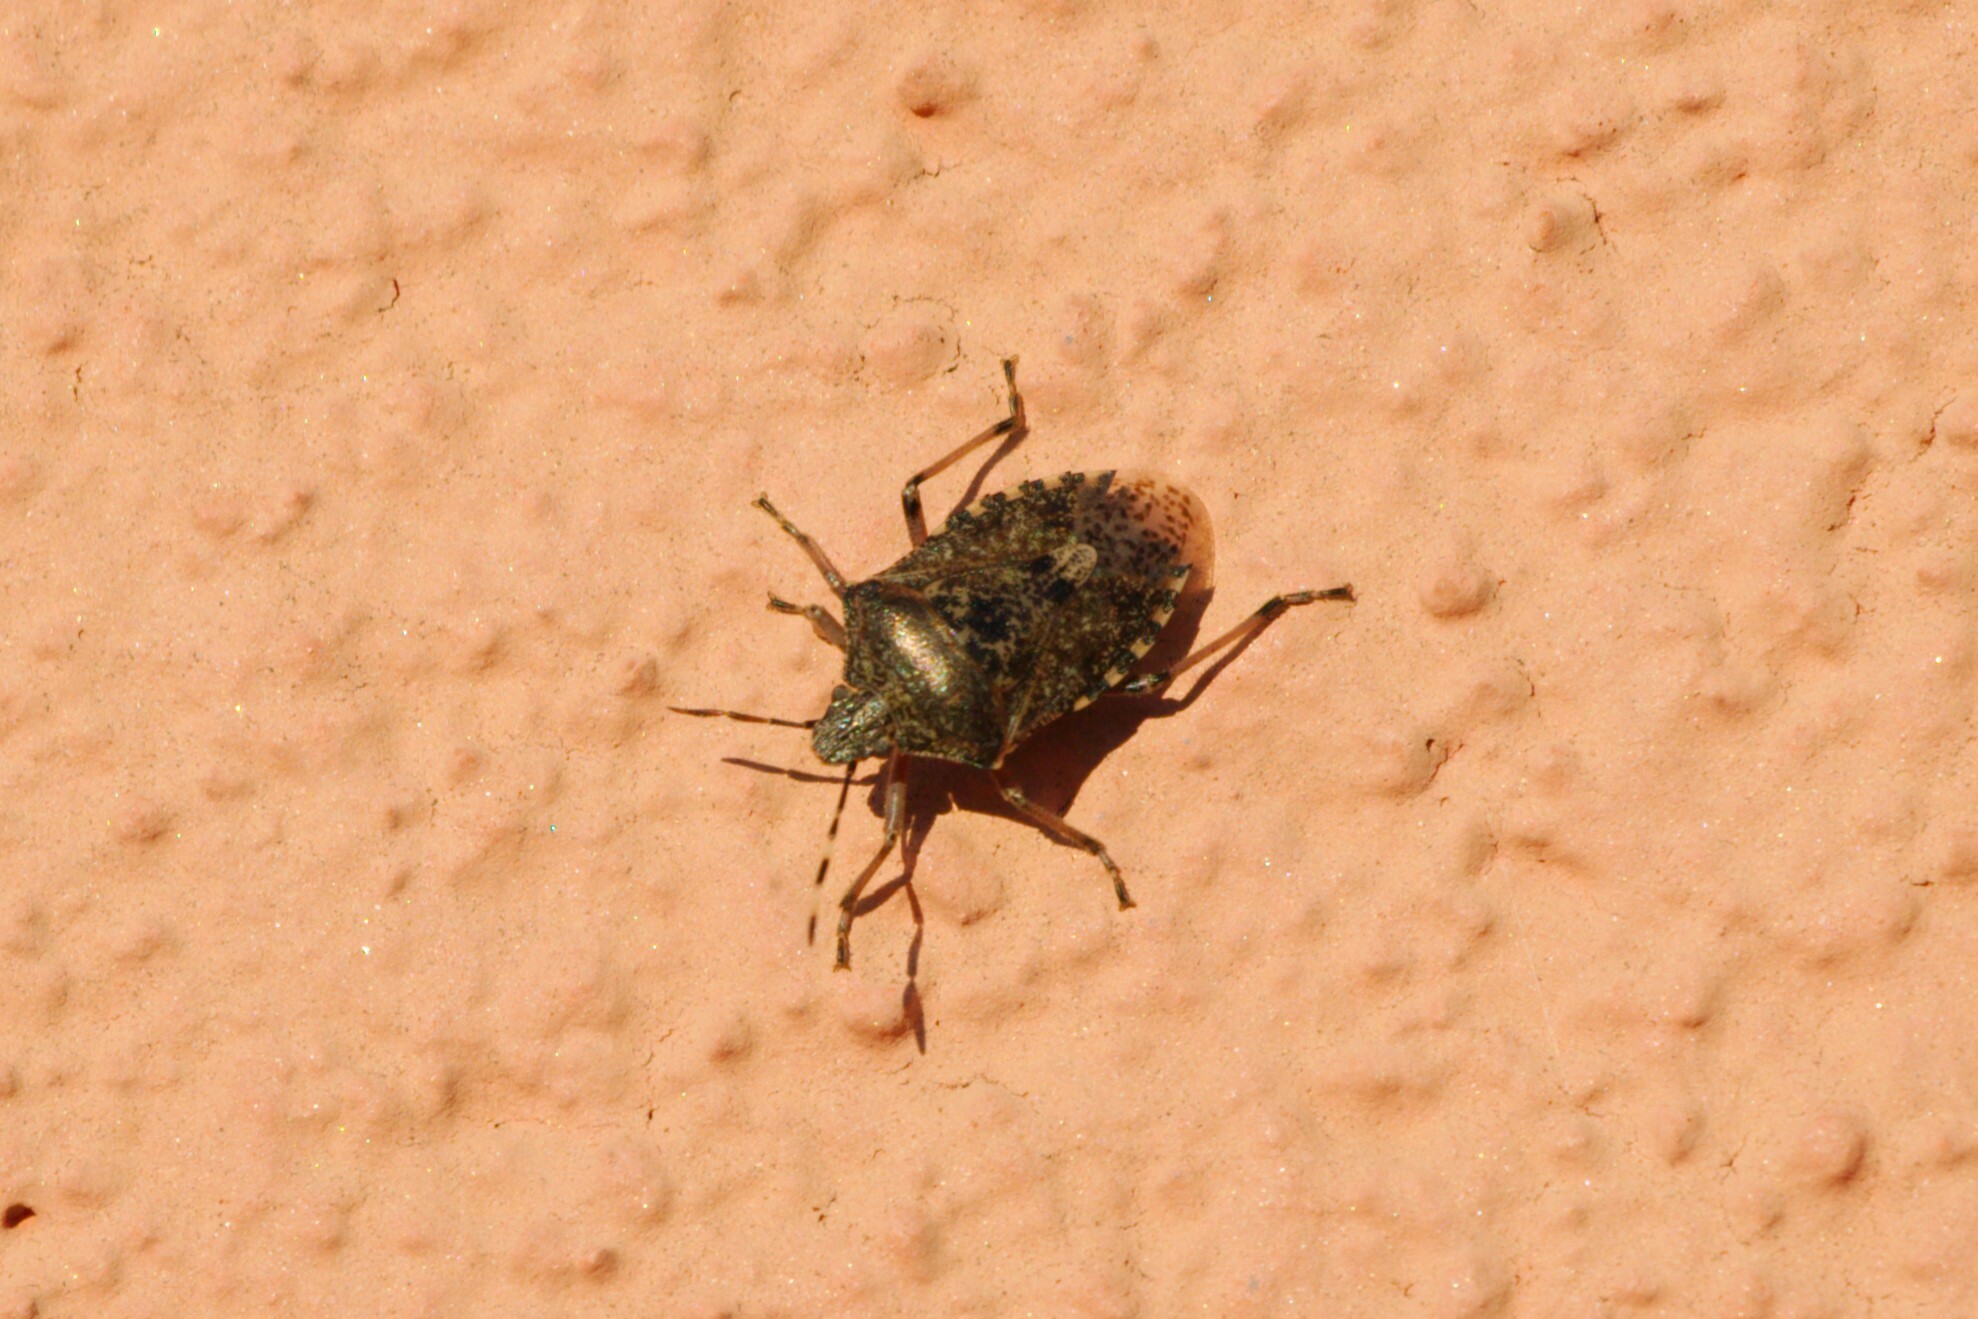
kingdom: Animalia
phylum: Arthropoda
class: Insecta
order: Hemiptera
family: Pentatomidae
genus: Rhaphigaster
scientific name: Rhaphigaster nebulosa
